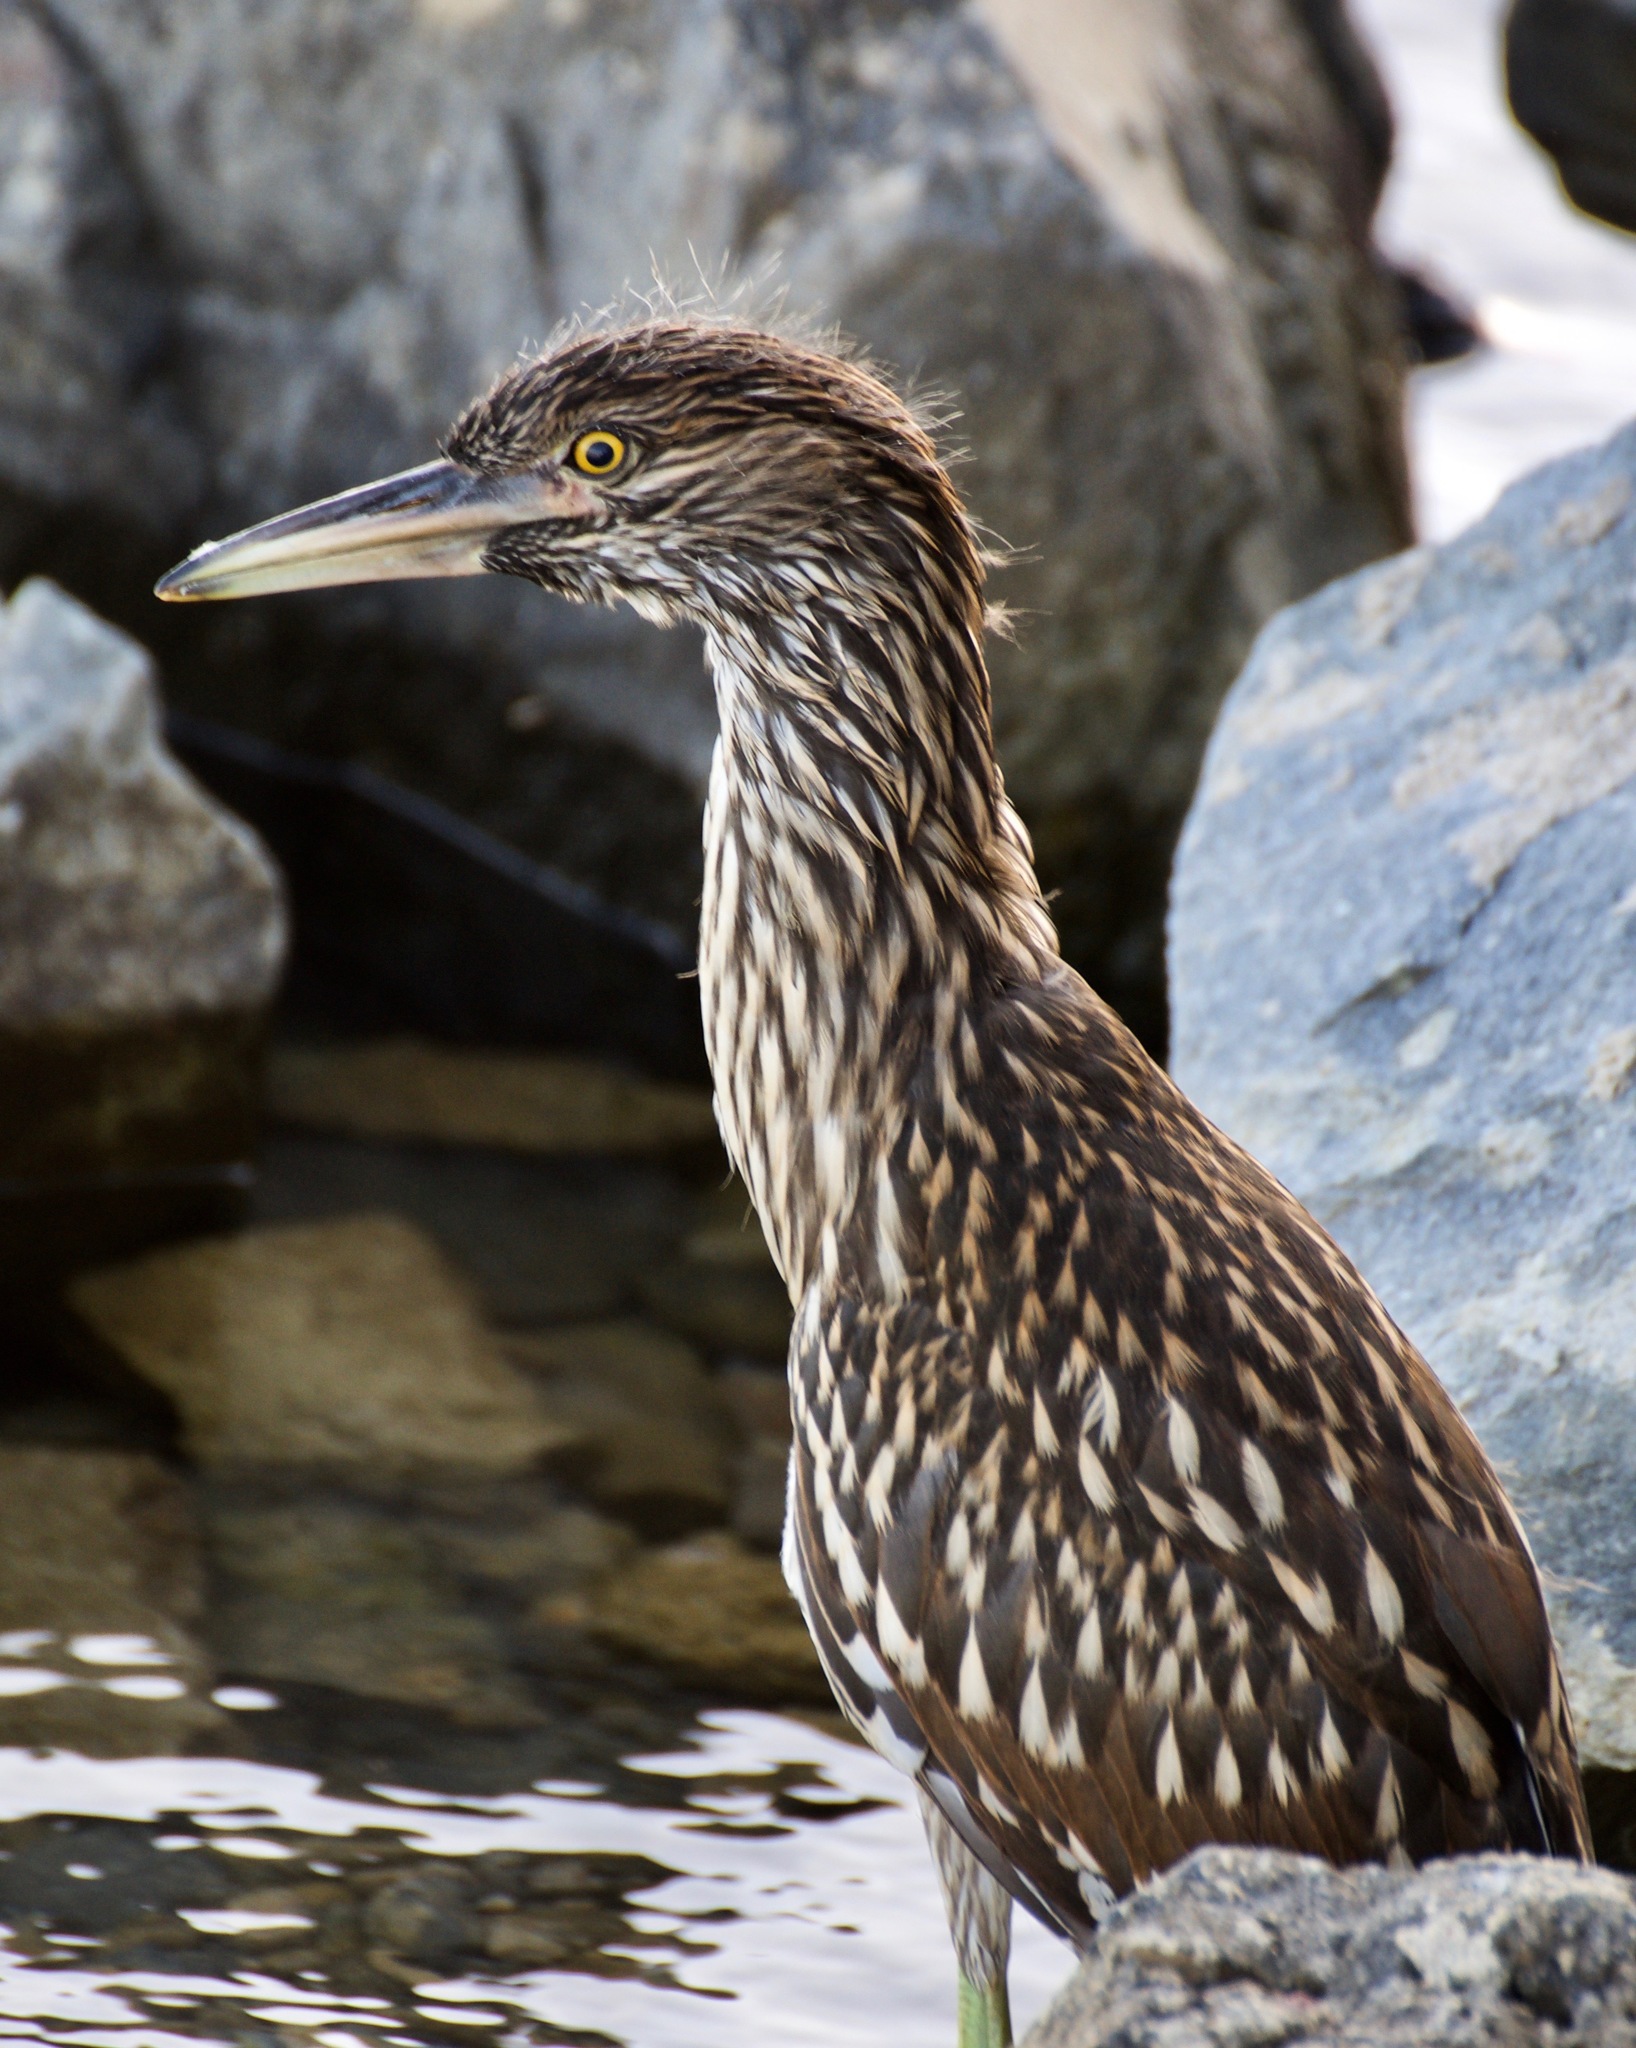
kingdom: Animalia
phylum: Chordata
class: Aves
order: Pelecaniformes
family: Ardeidae
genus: Nycticorax
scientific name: Nycticorax nycticorax
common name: Black-crowned night heron
